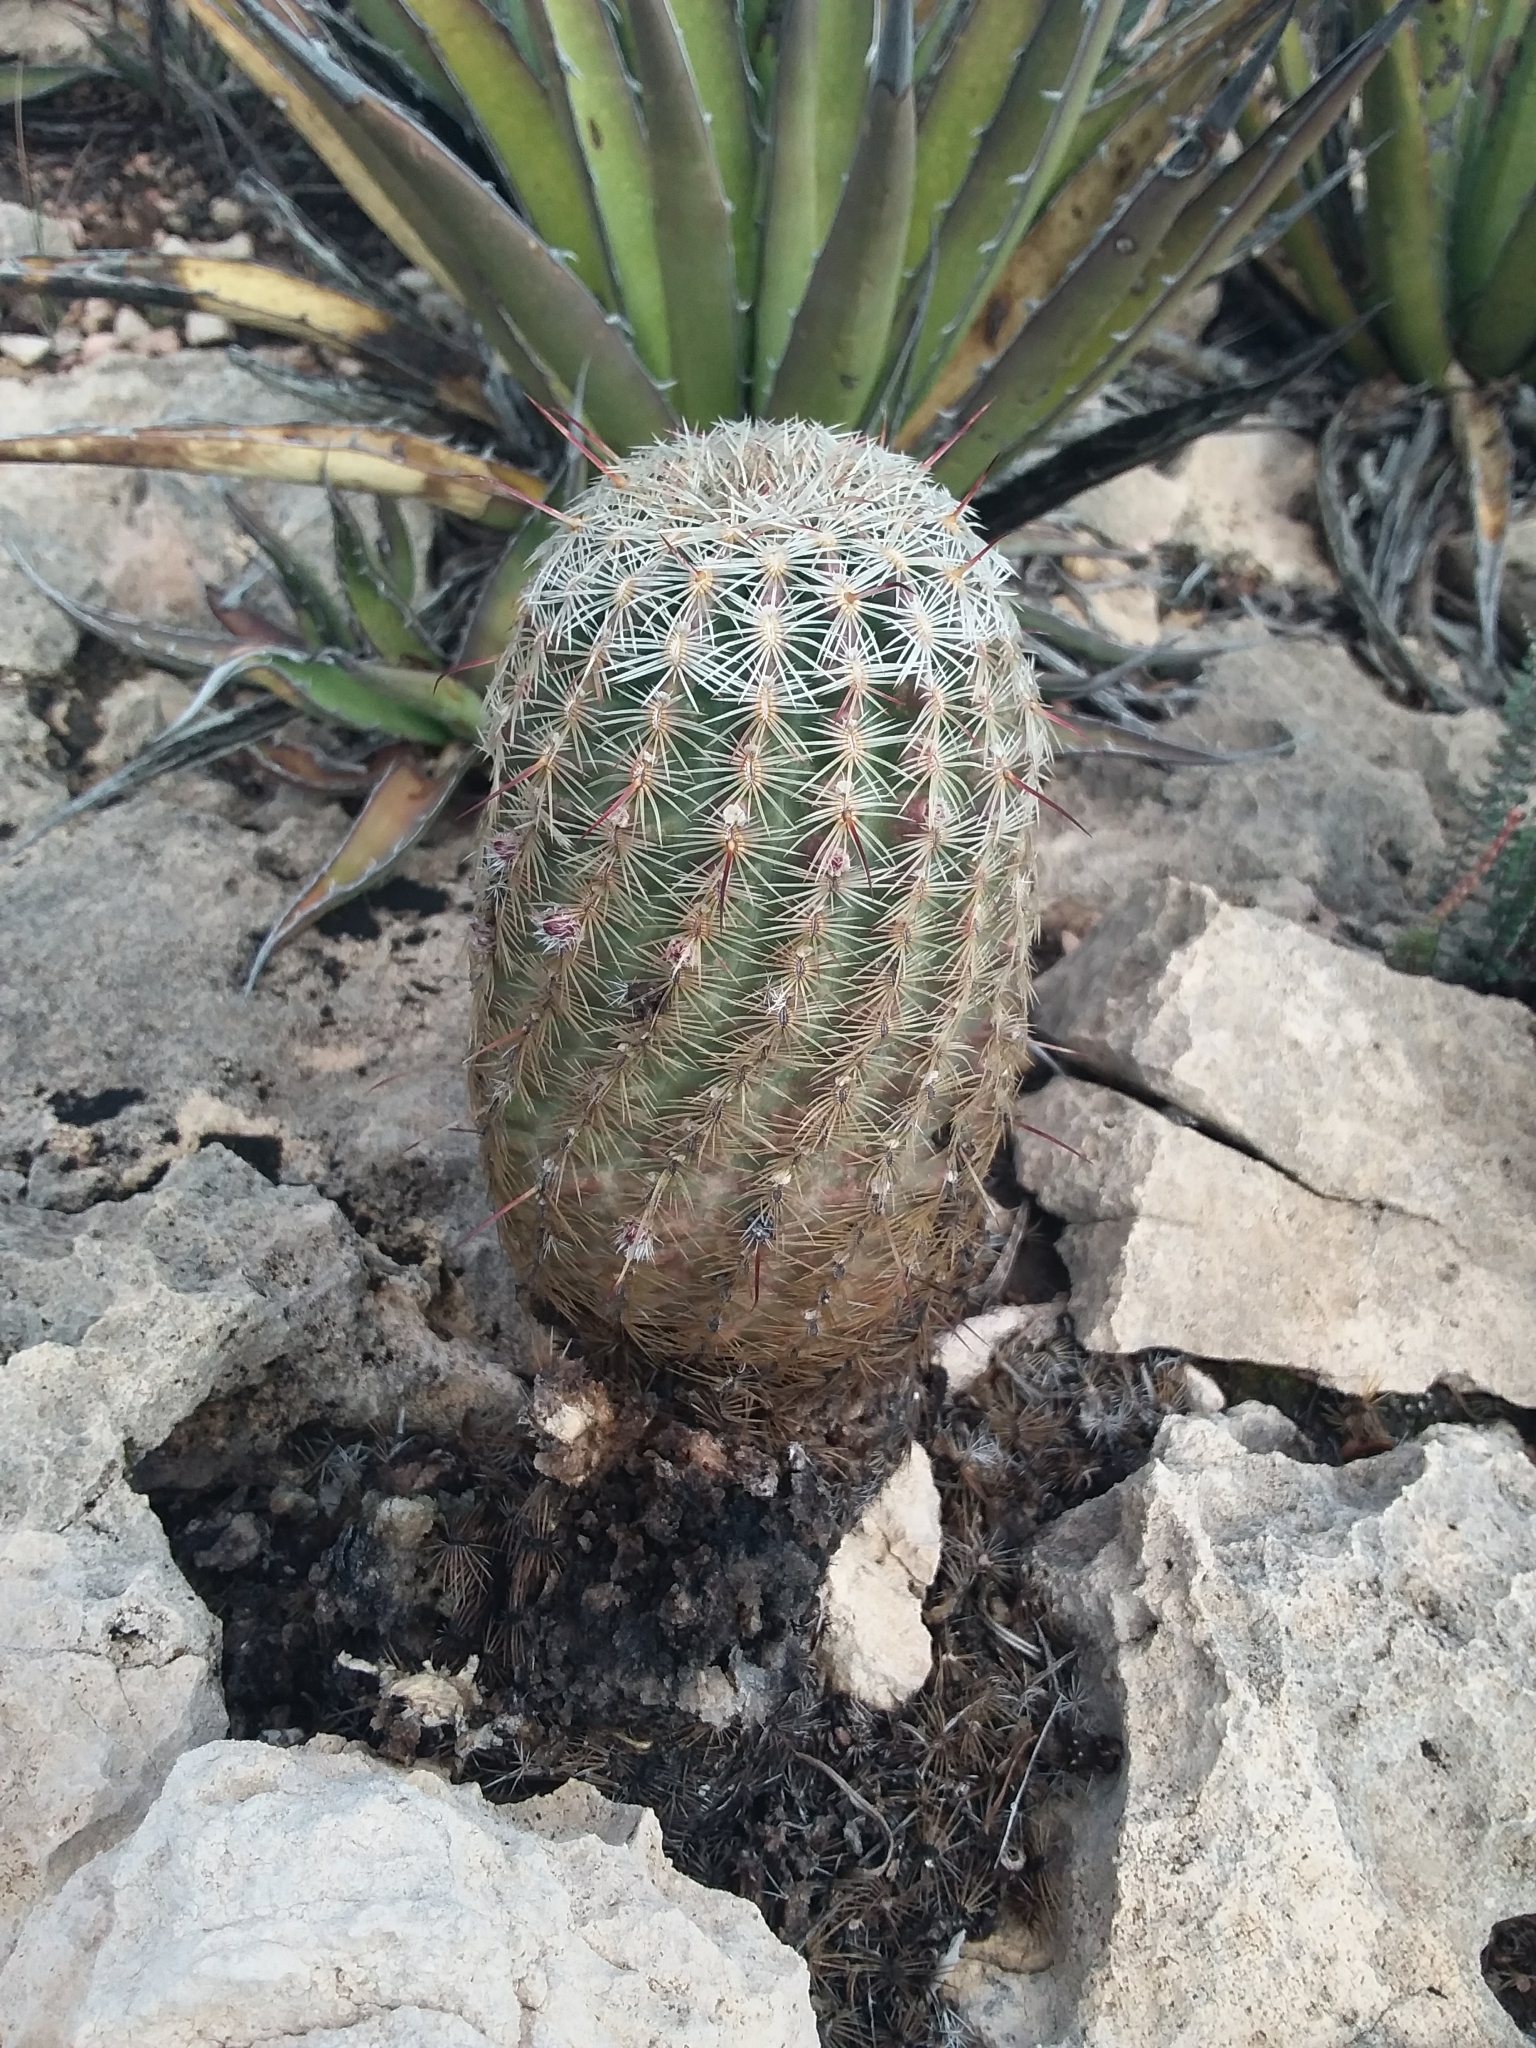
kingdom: Plantae
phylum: Tracheophyta
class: Magnoliopsida
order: Caryophyllales
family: Cactaceae
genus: Echinocereus
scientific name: Echinocereus viridiflorus
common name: Nylon hedgehog cactus
